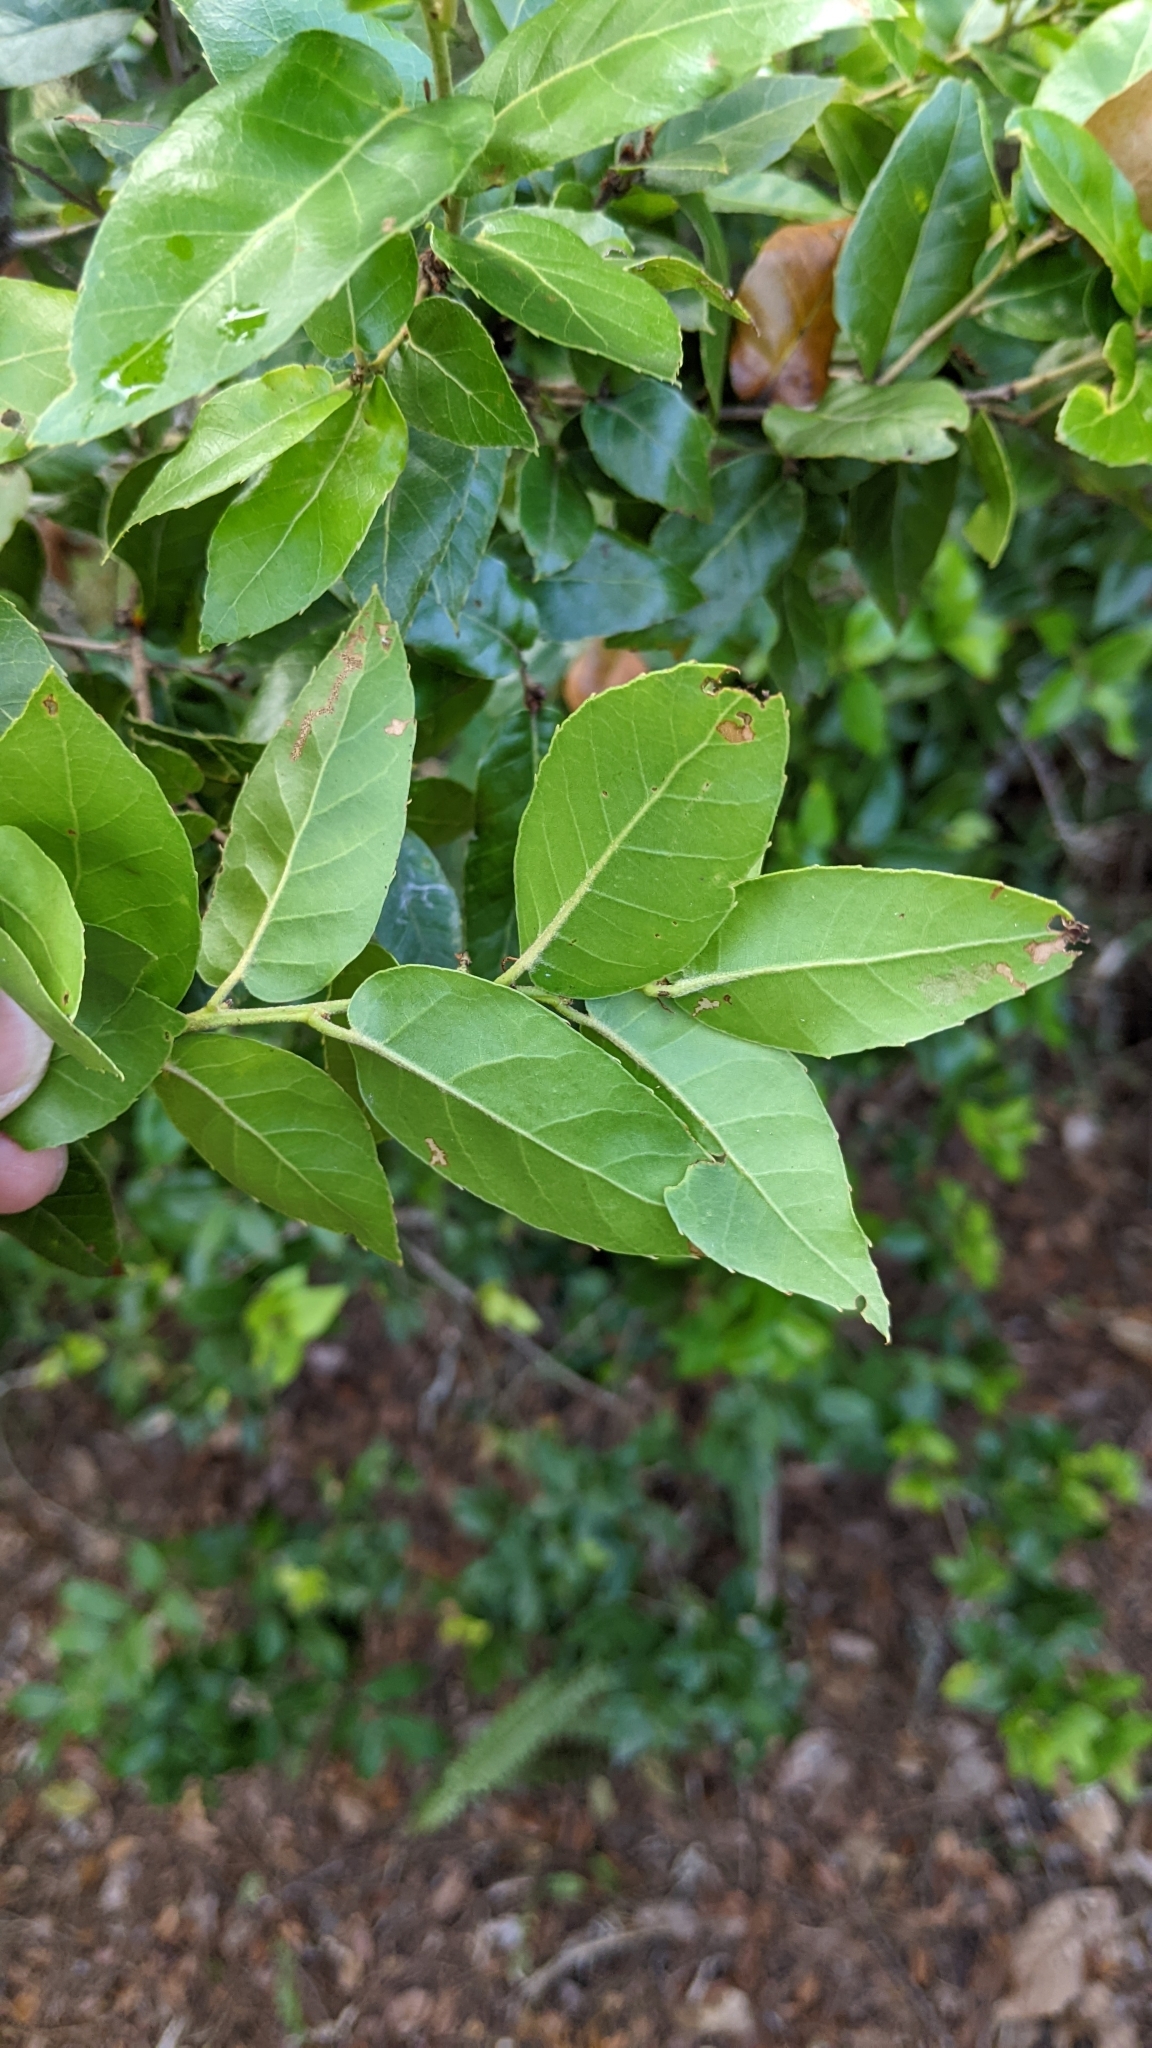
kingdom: Plantae
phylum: Tracheophyta
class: Magnoliopsida
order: Fagales
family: Fagaceae
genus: Quercus
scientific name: Quercus tarokoensis
